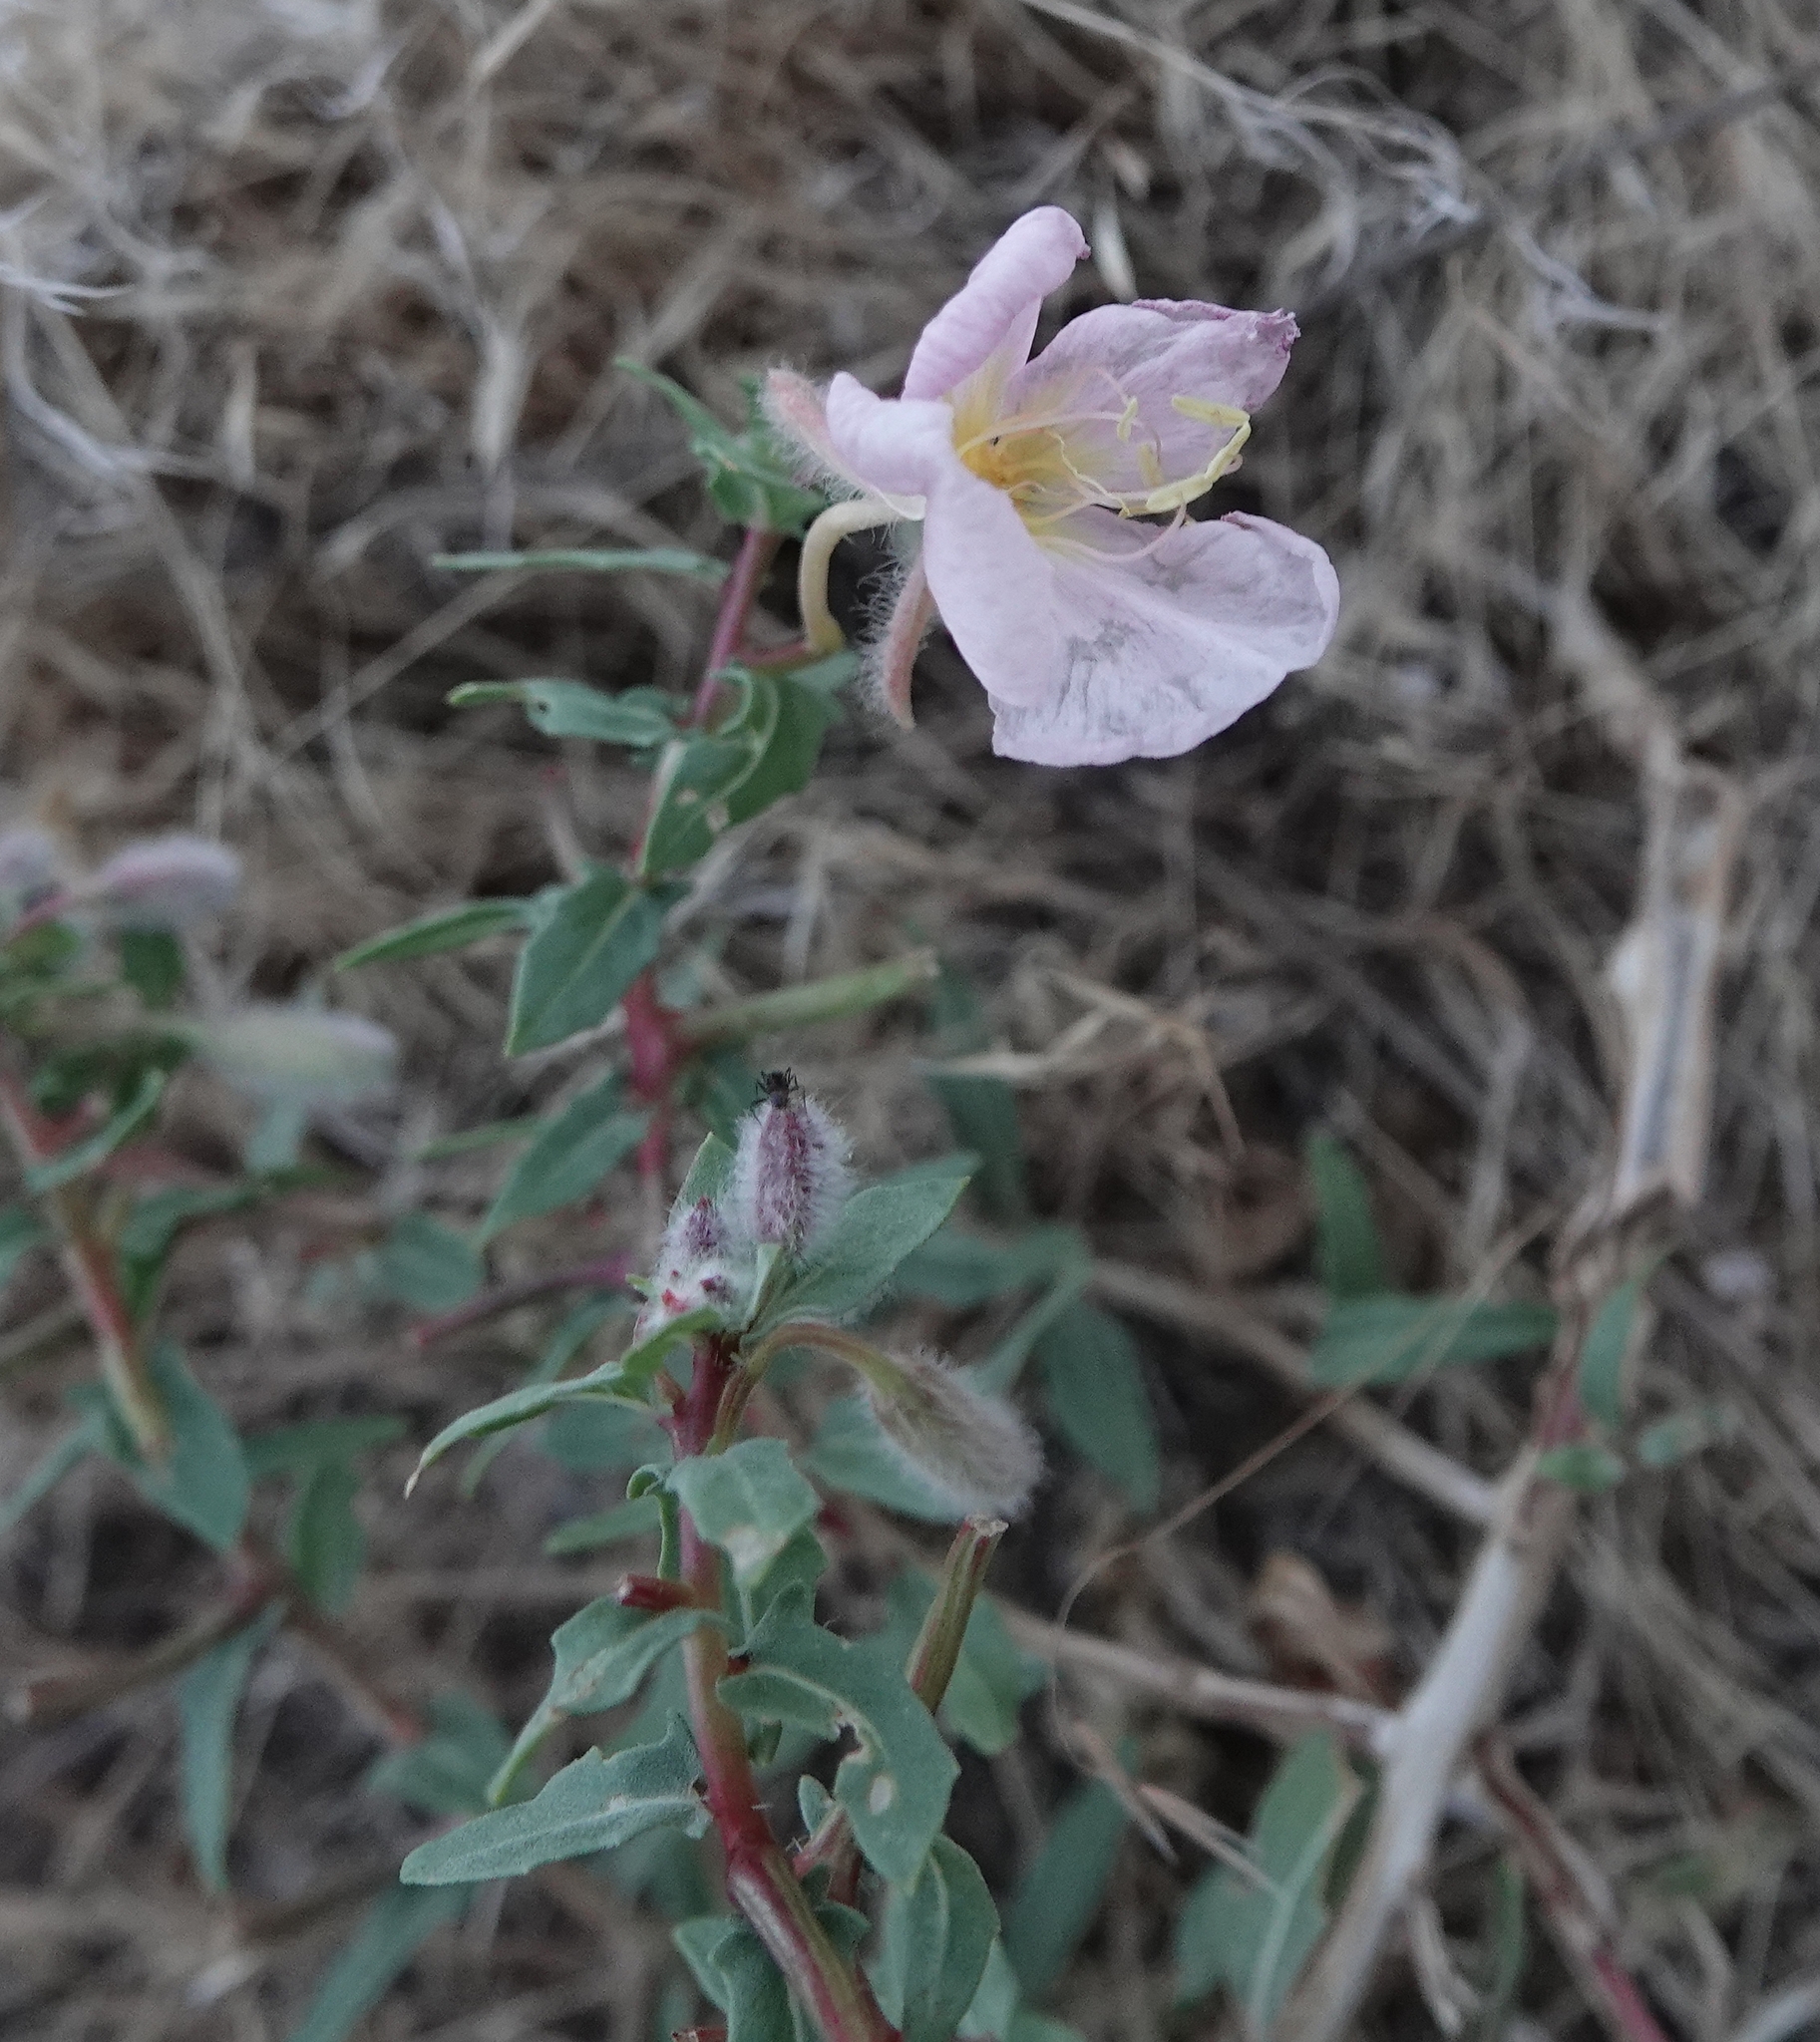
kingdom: Plantae
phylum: Tracheophyta
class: Magnoliopsida
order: Myrtales
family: Onagraceae
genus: Oenothera
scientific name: Oenothera pallida
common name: Pale evening-primrose
